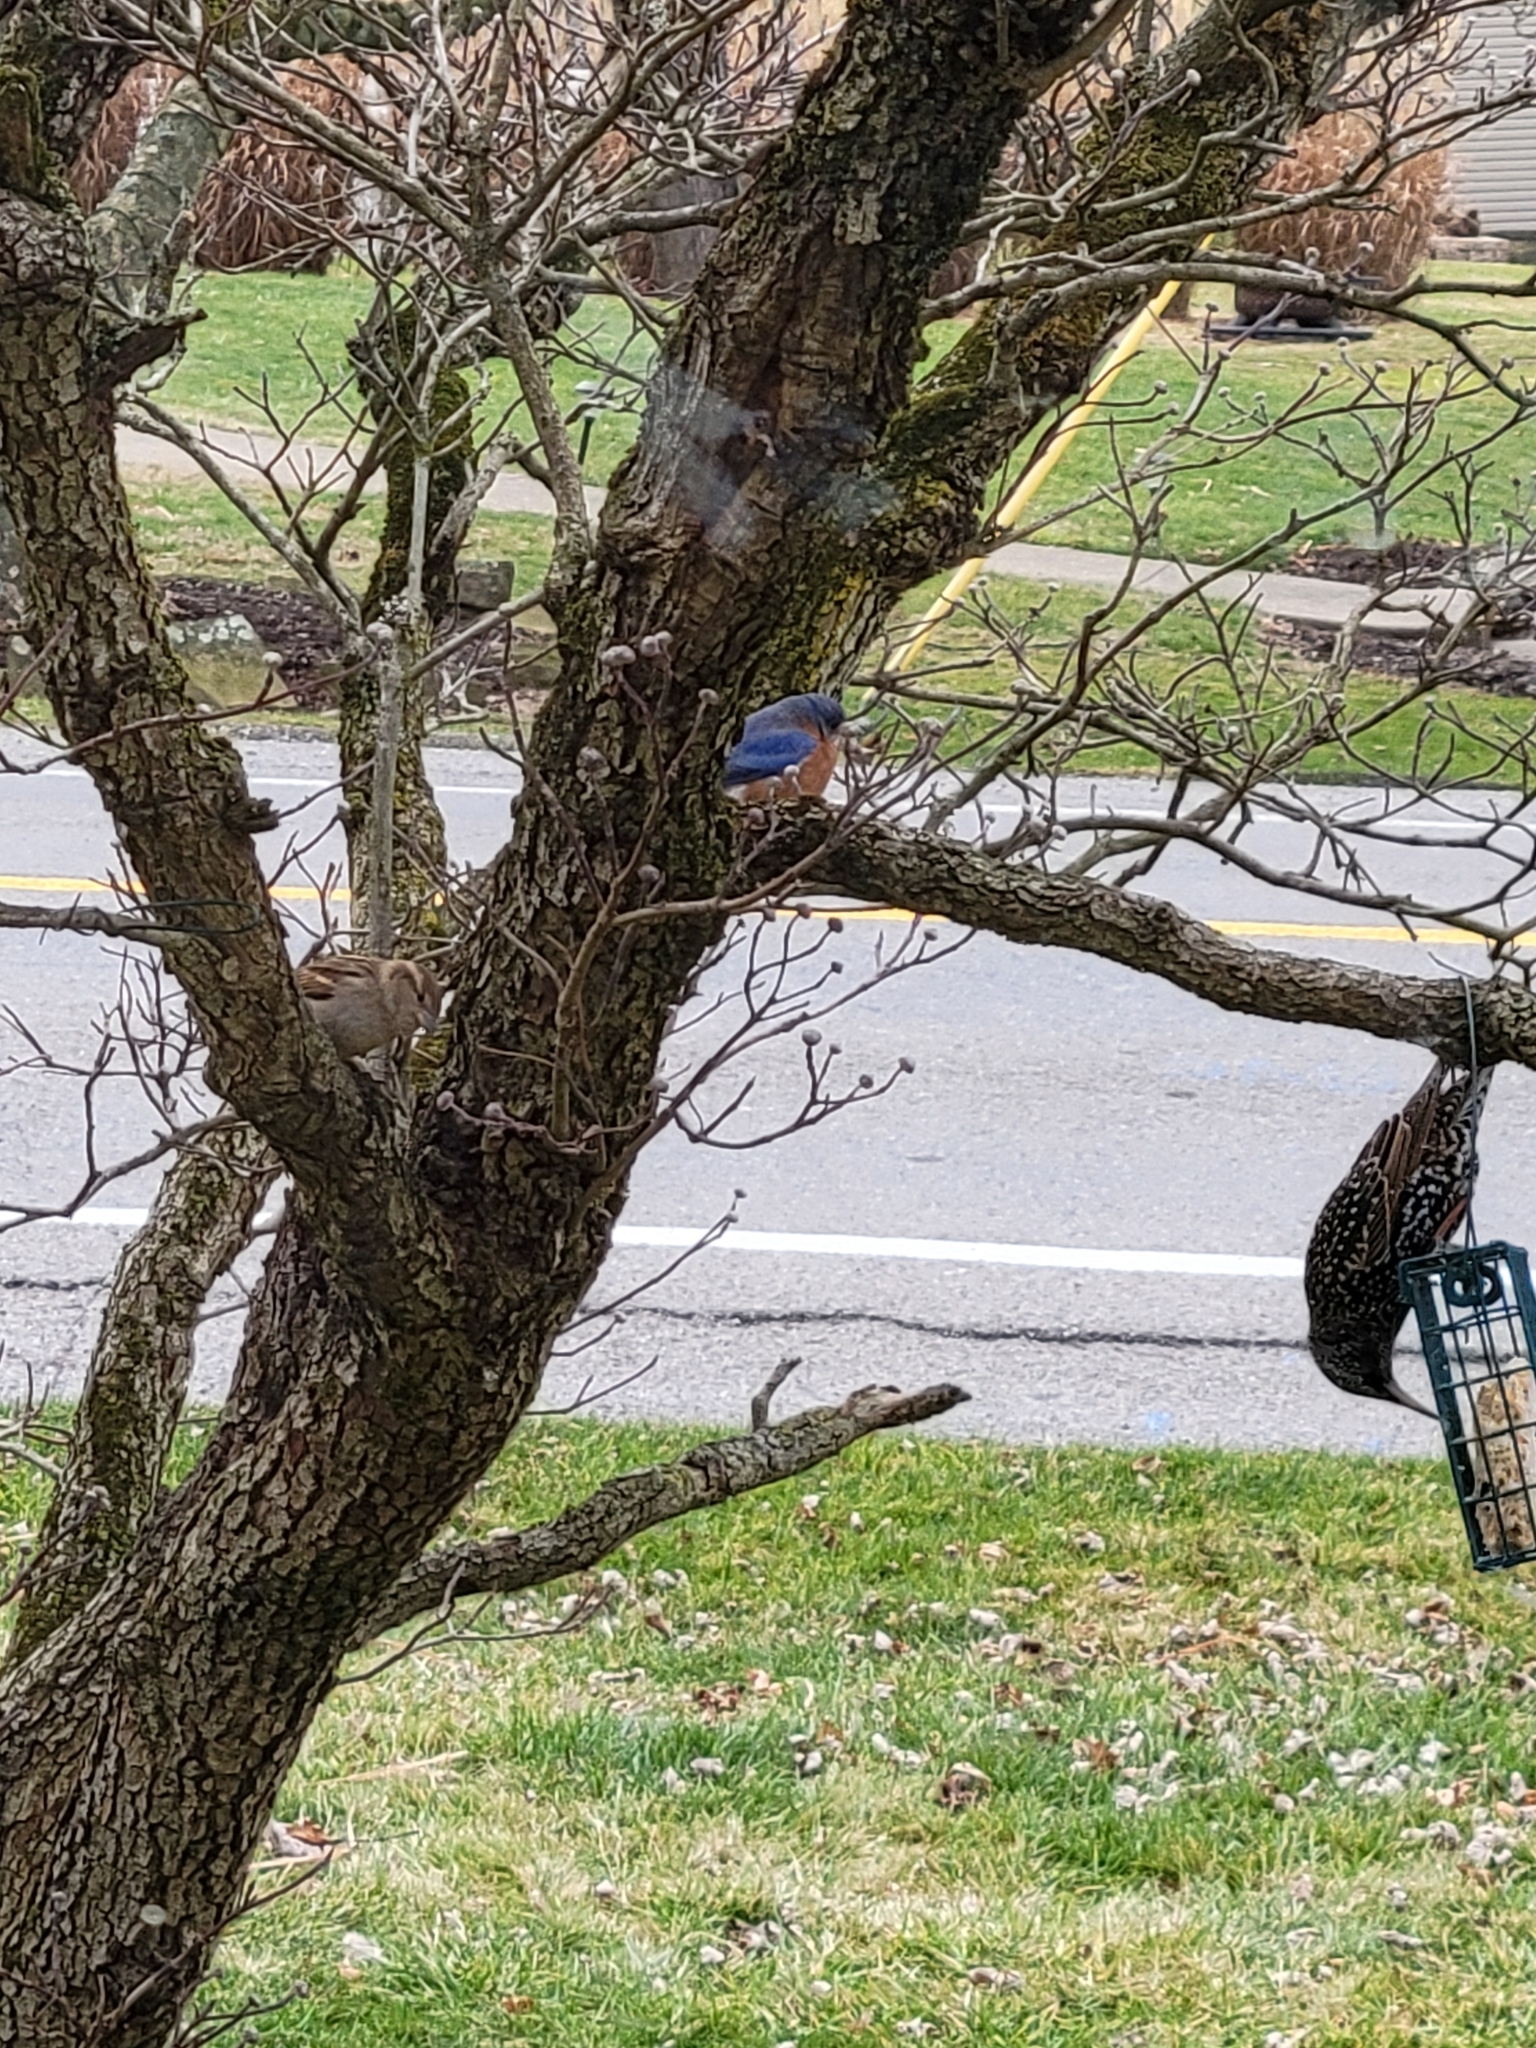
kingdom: Animalia
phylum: Chordata
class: Aves
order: Passeriformes
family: Turdidae
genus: Sialia
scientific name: Sialia sialis
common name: Eastern bluebird
